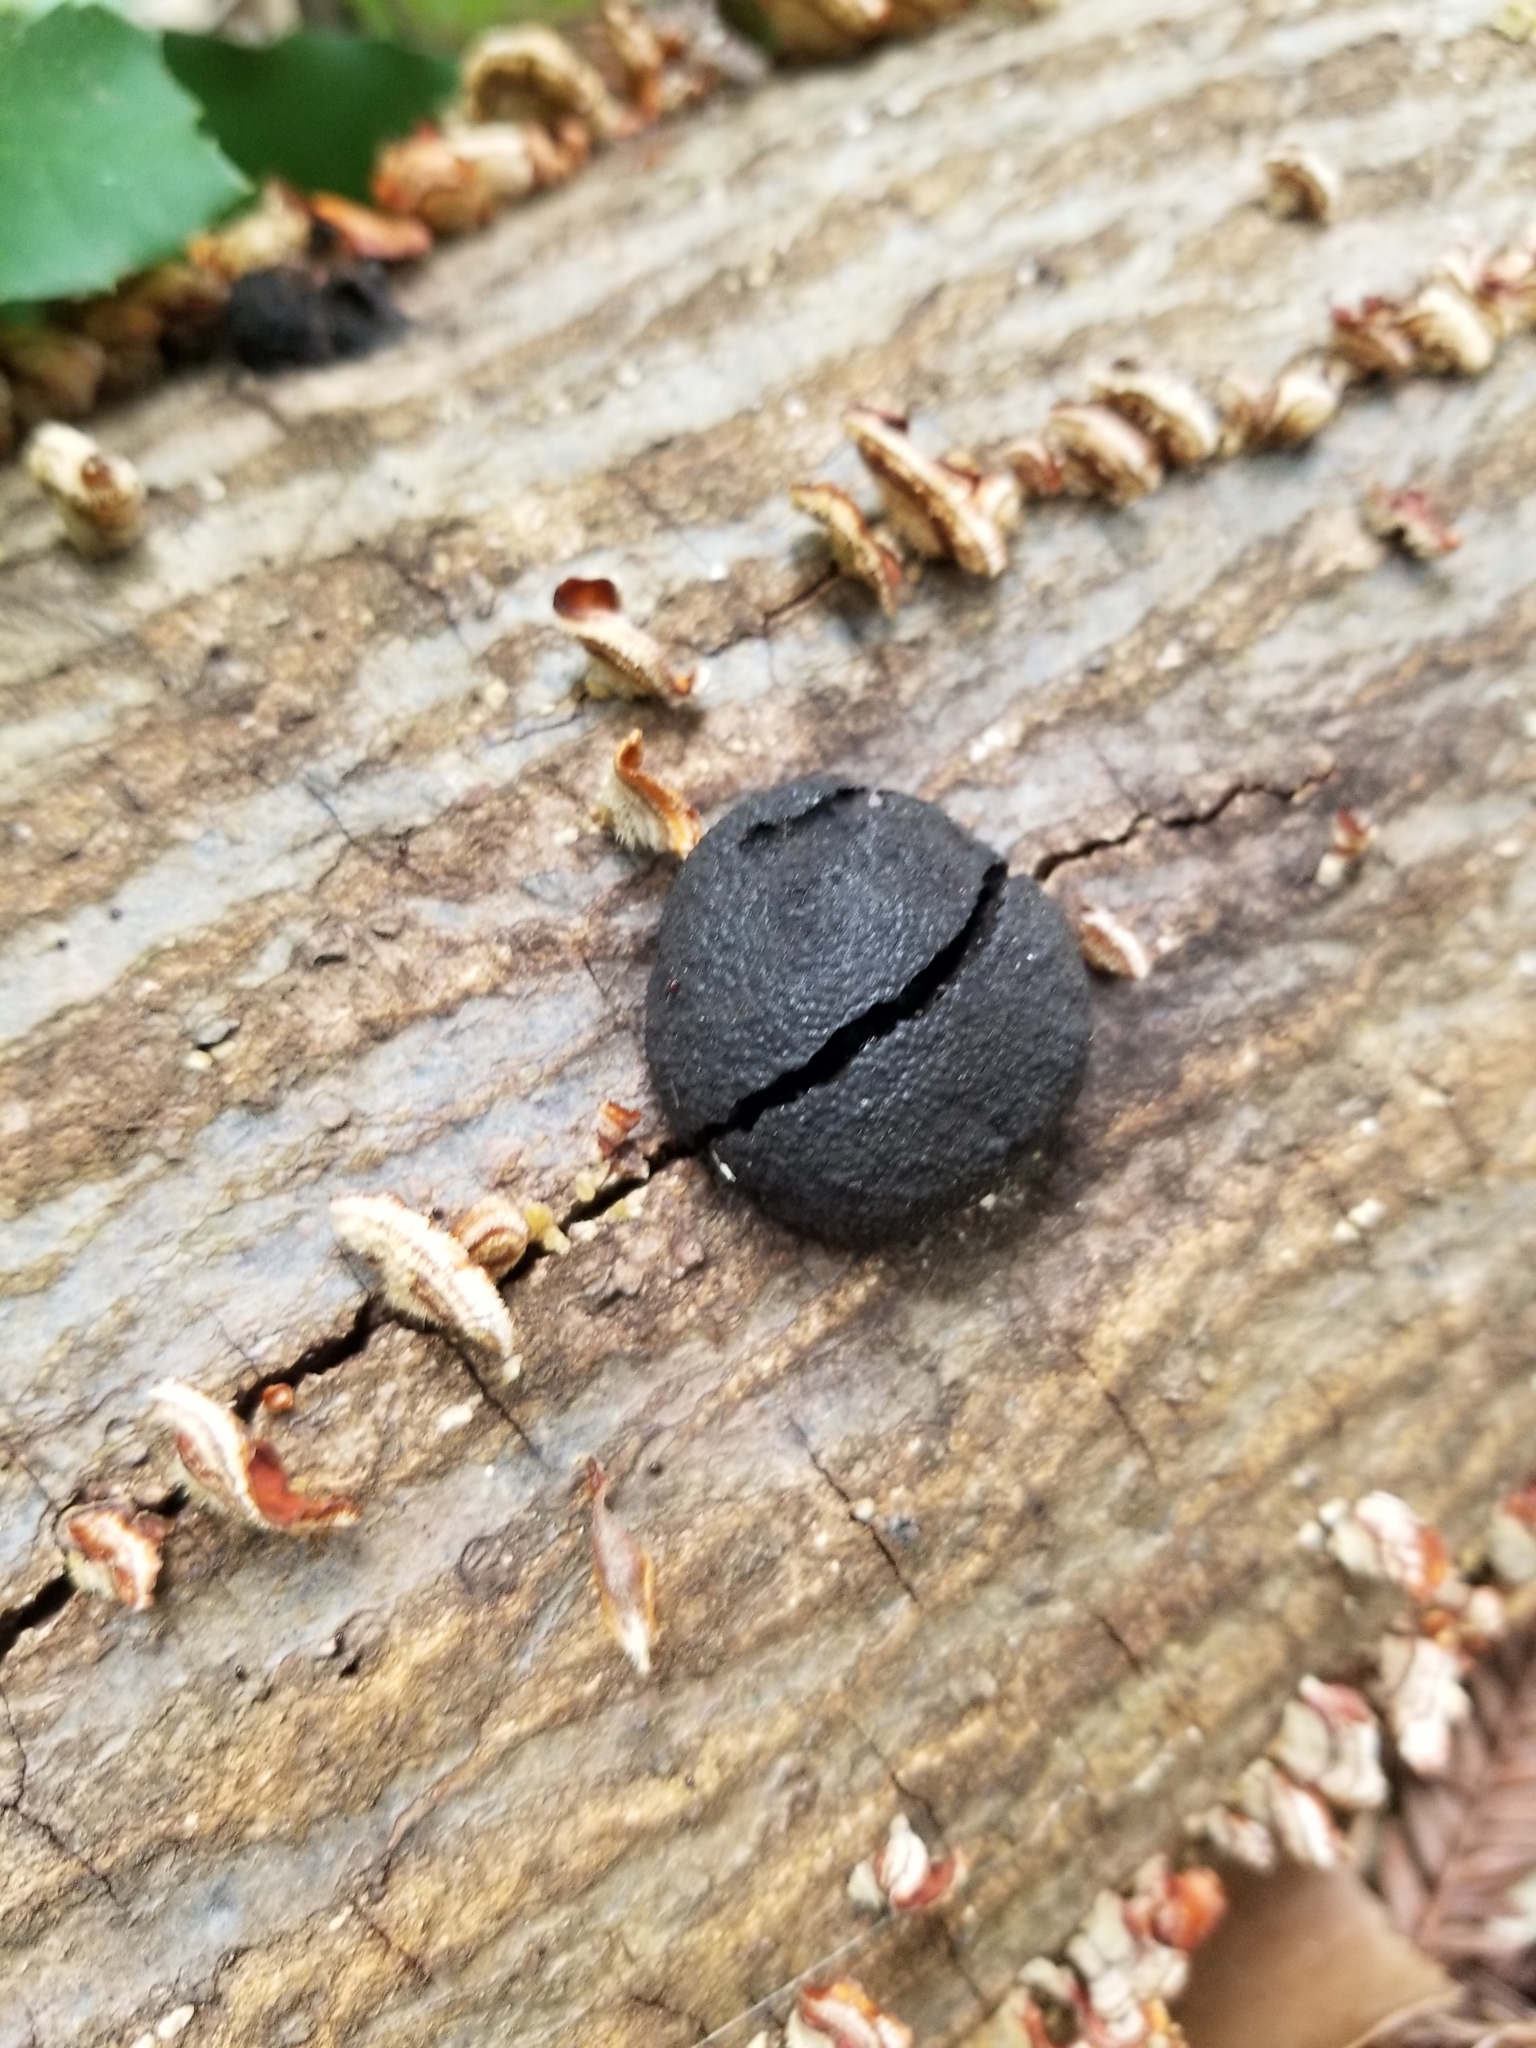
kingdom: Fungi
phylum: Ascomycota
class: Sordariomycetes
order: Xylariales
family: Hypoxylaceae
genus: Annulohypoxylon
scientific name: Annulohypoxylon thouarsianum
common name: Cramp balls
